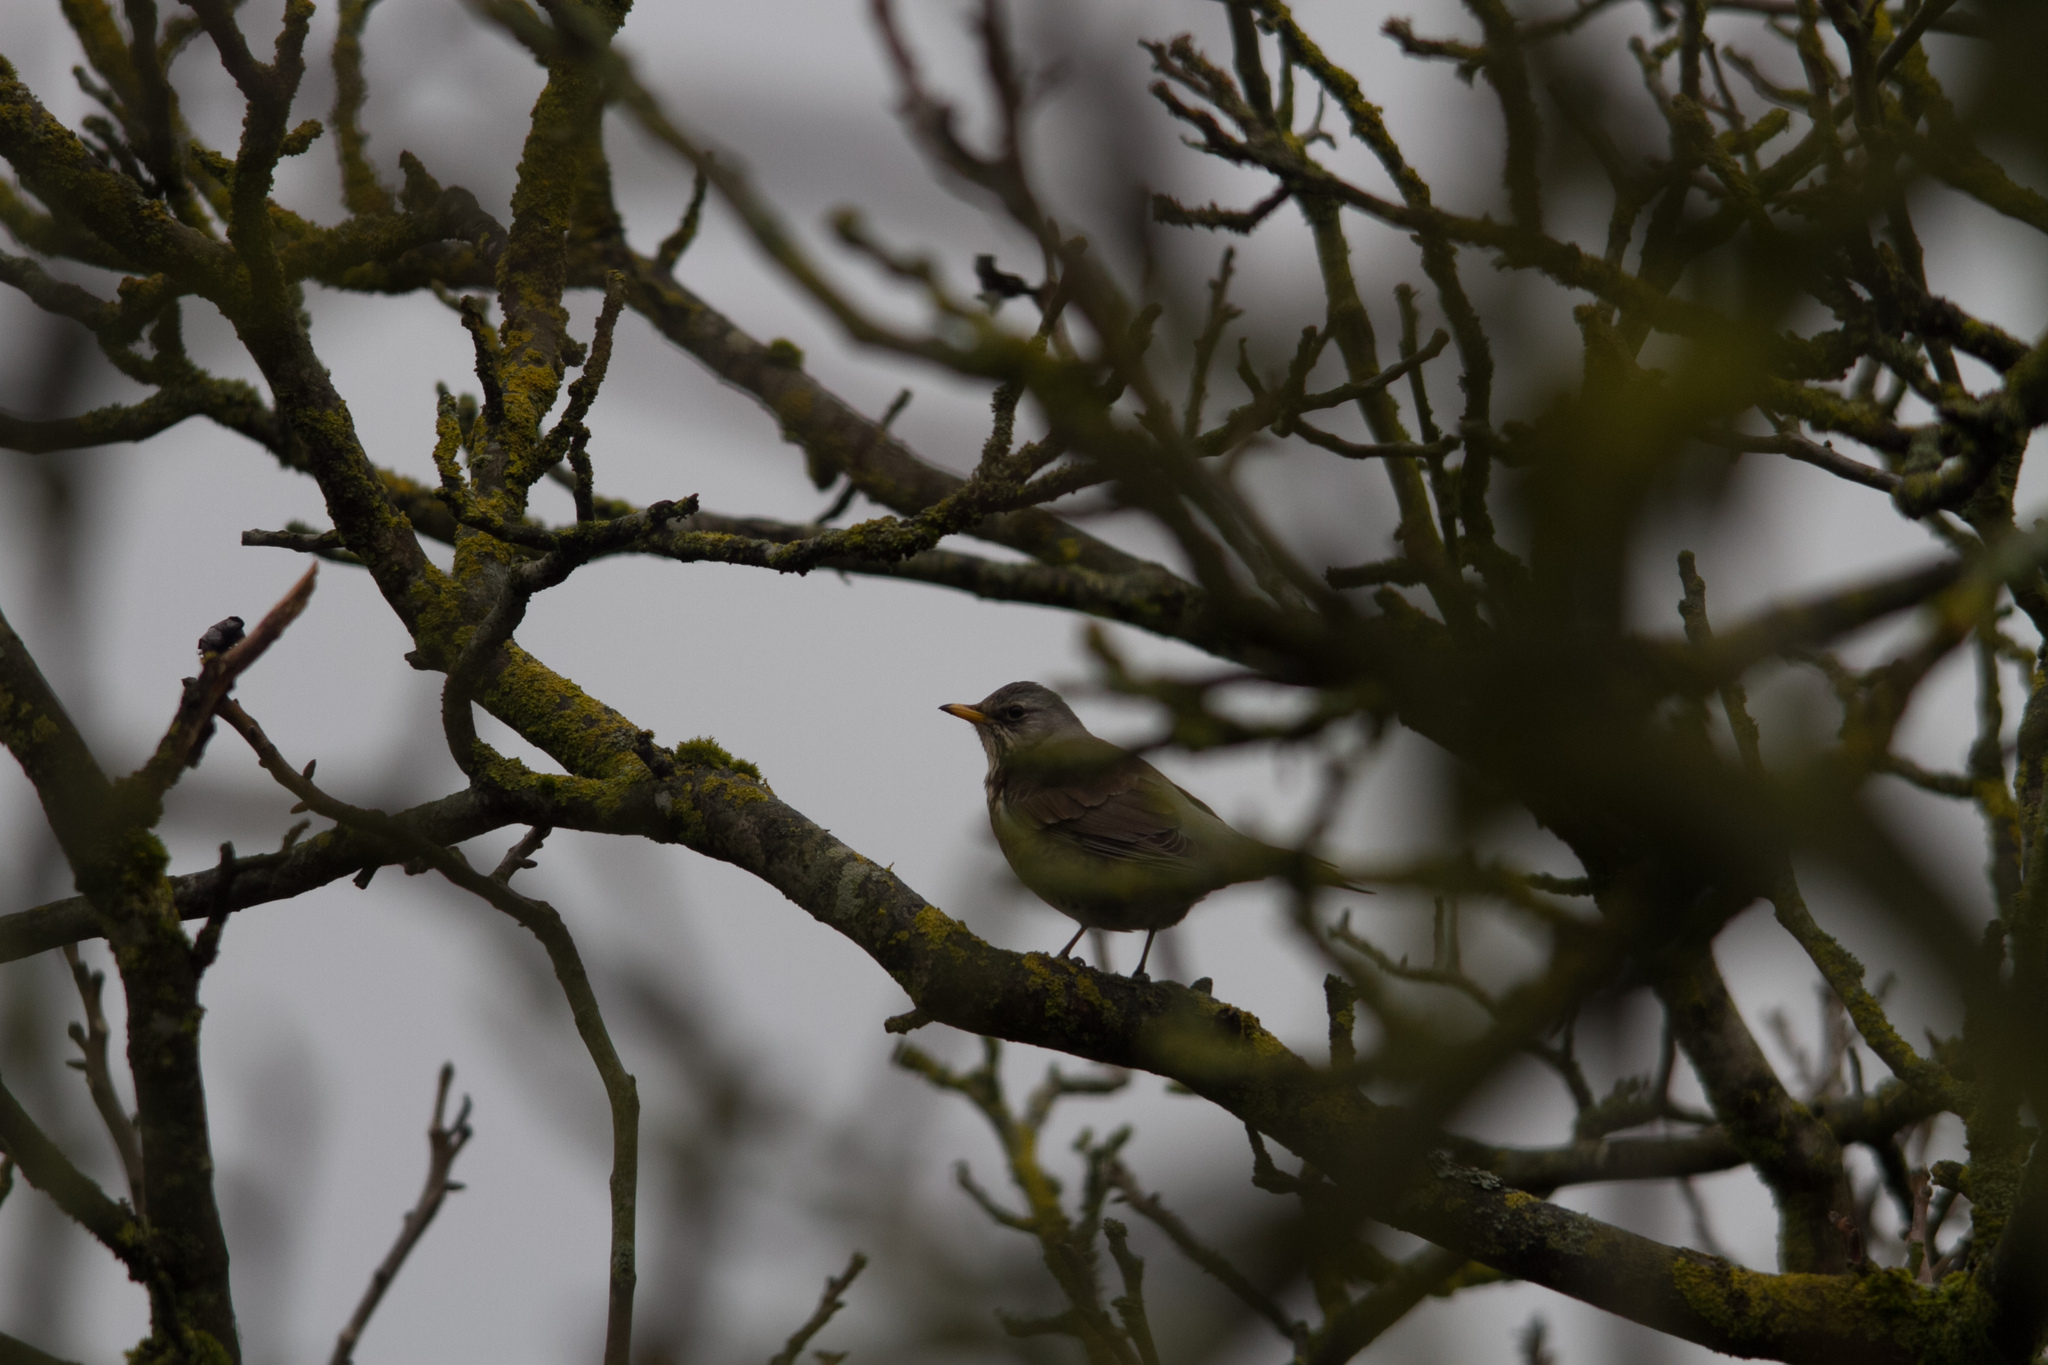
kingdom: Animalia
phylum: Chordata
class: Aves
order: Passeriformes
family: Turdidae
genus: Turdus
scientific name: Turdus pilaris
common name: Fieldfare
